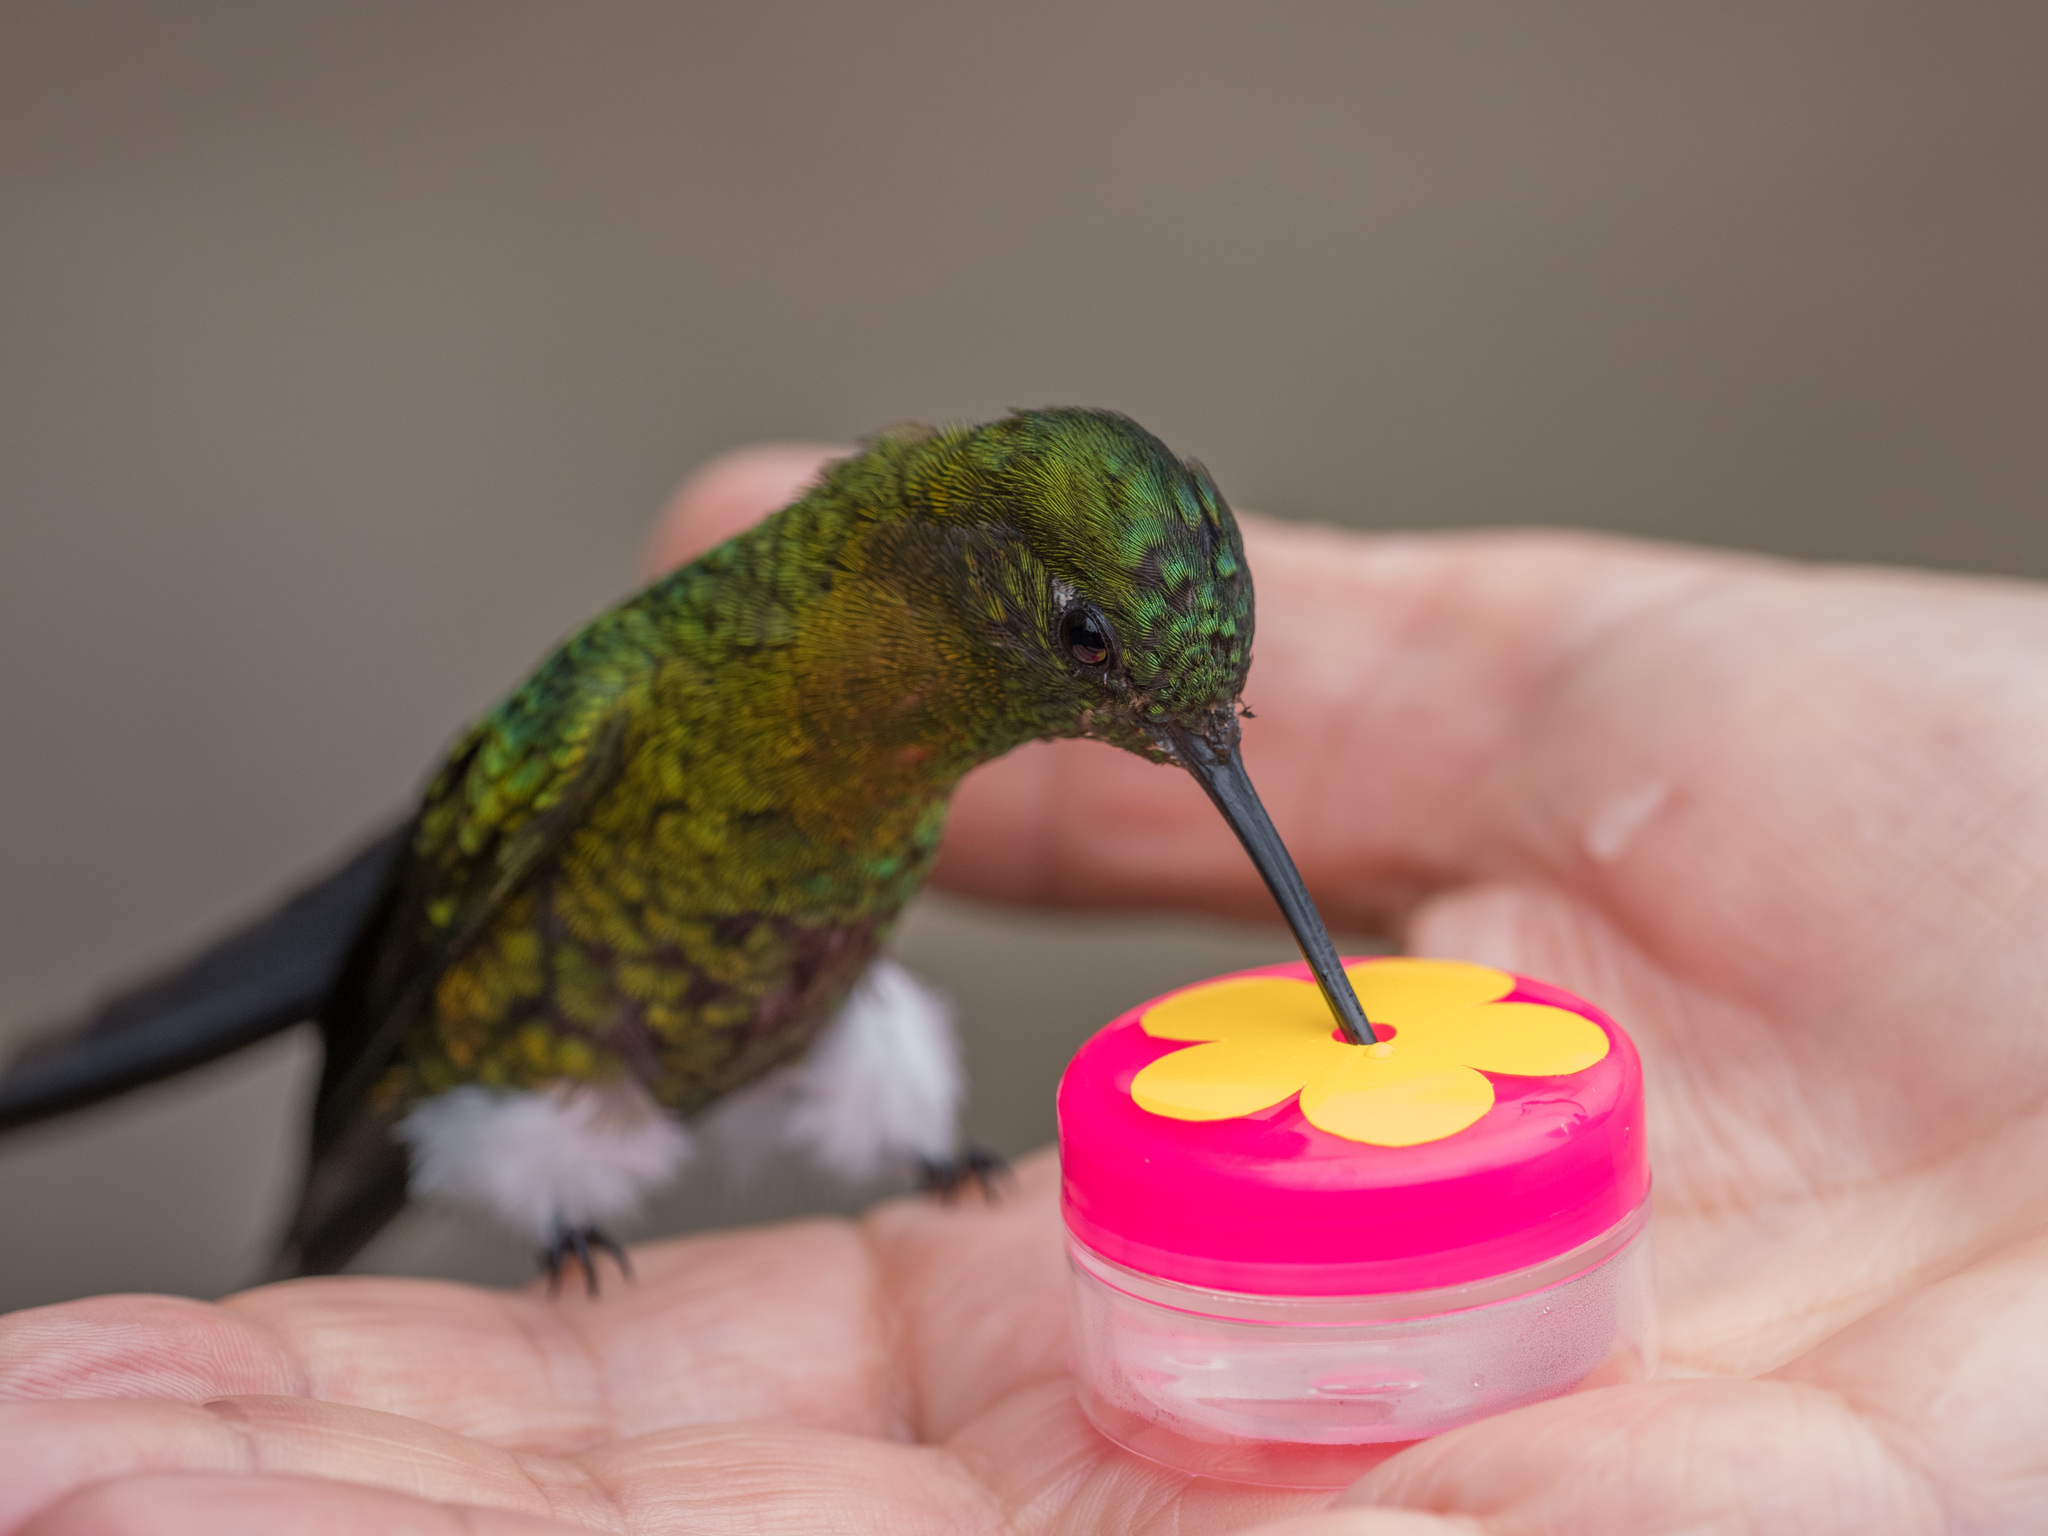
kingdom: Animalia
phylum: Chordata
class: Aves
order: Apodiformes
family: Trochilidae
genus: Eriocnemis
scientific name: Eriocnemis mosquera
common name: Golden-breasted puffleg
